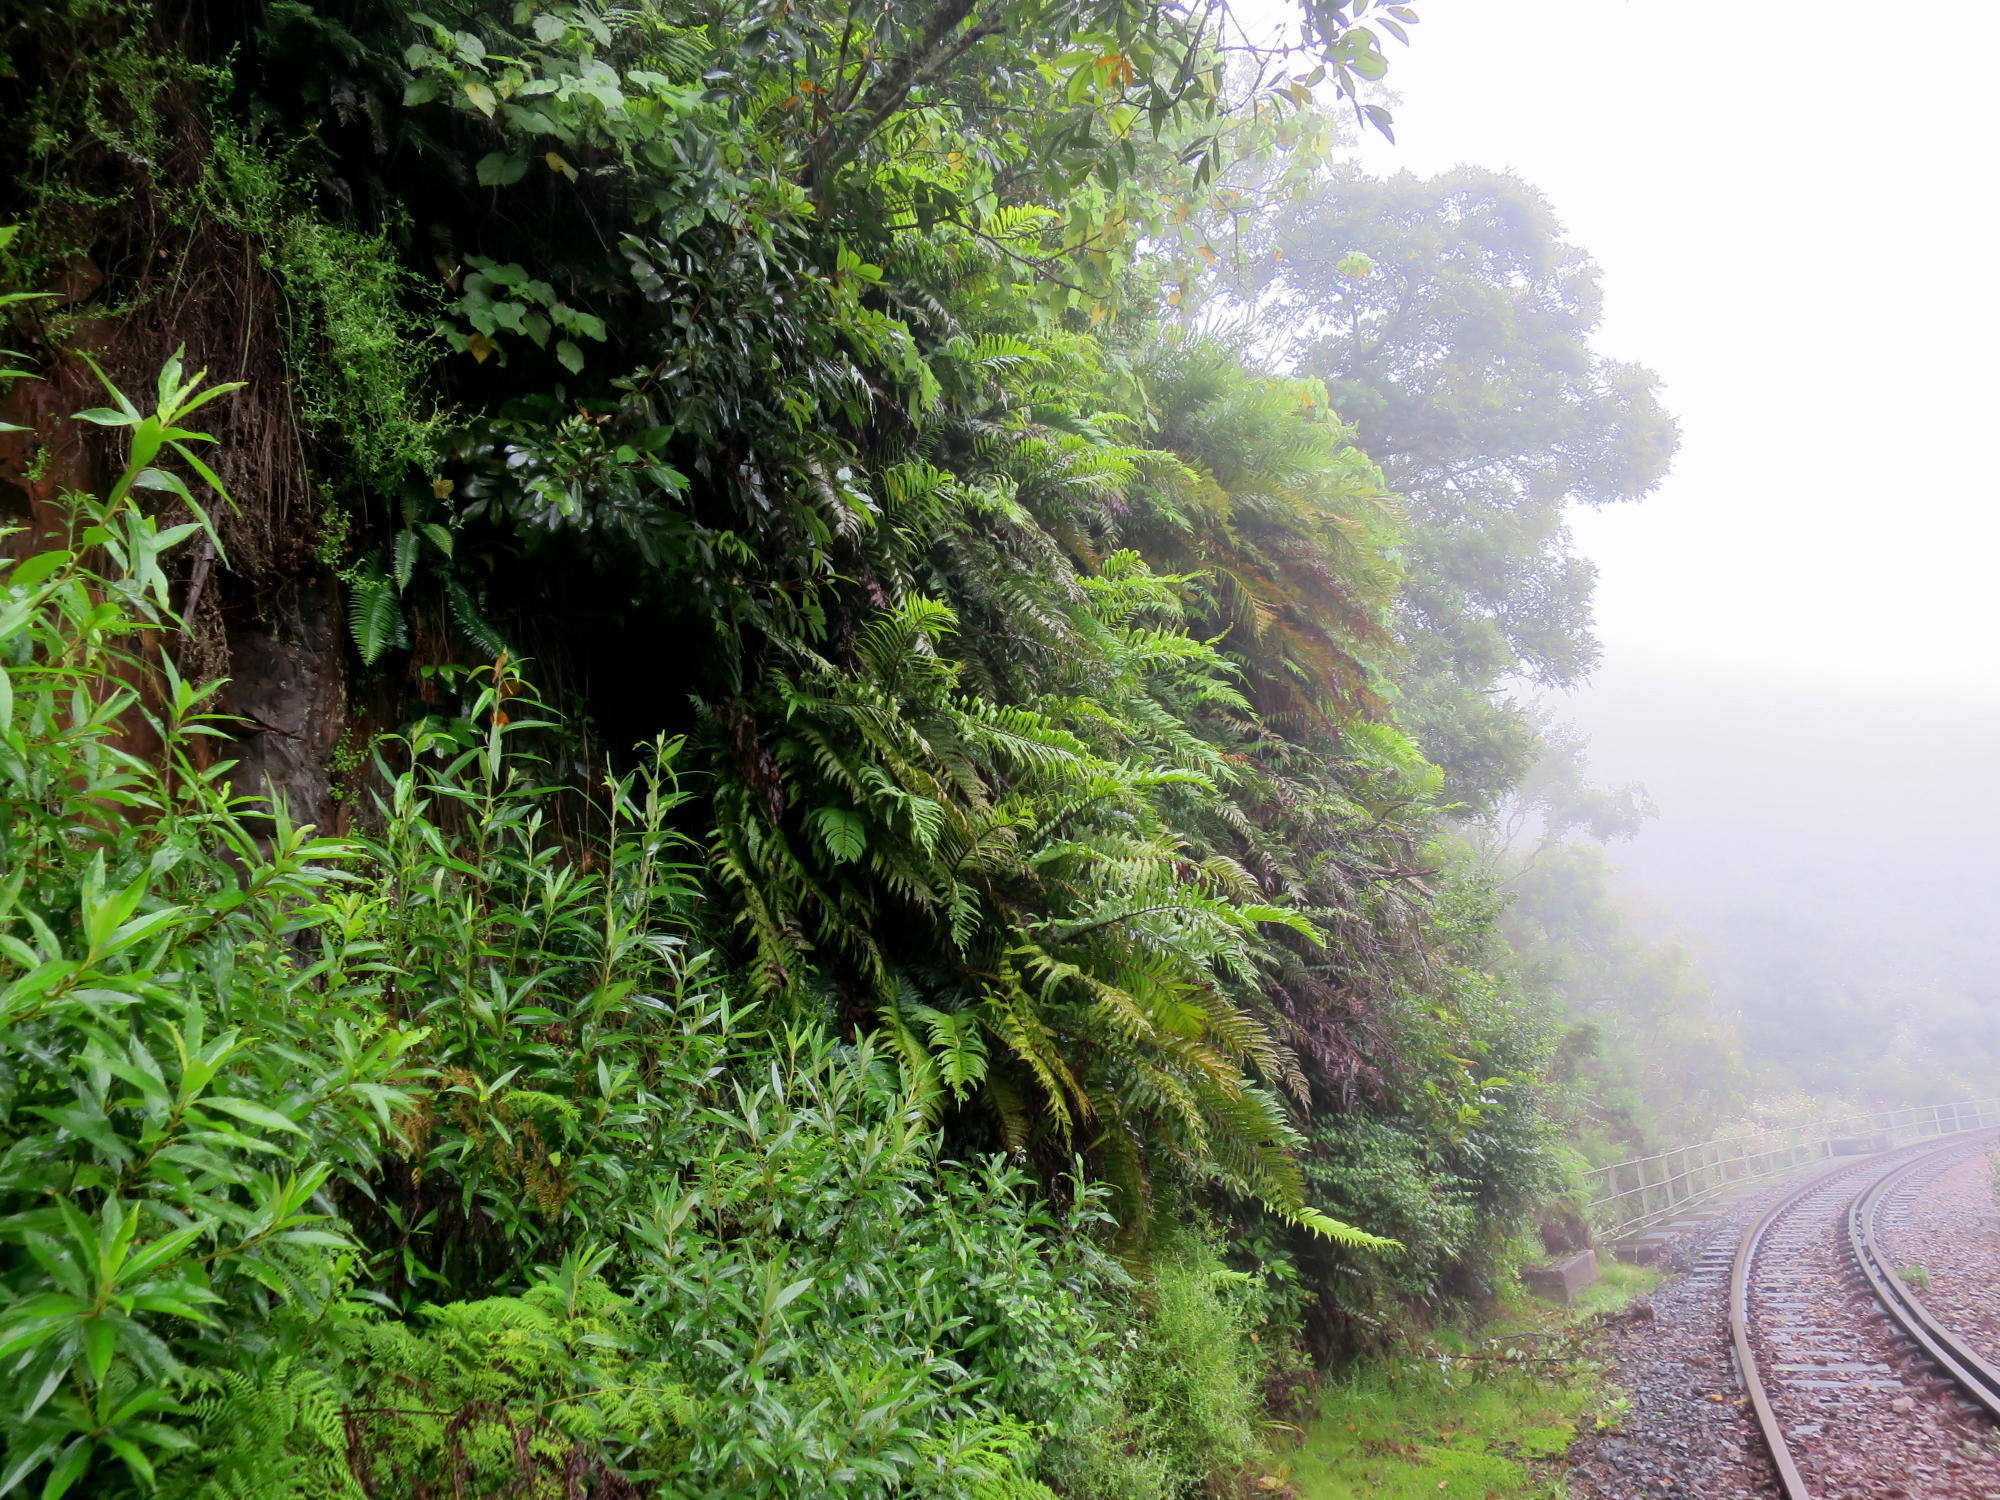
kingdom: Plantae
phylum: Tracheophyta
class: Polypodiopsida
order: Polypodiales
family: Blechnaceae
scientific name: Blechnaceae
